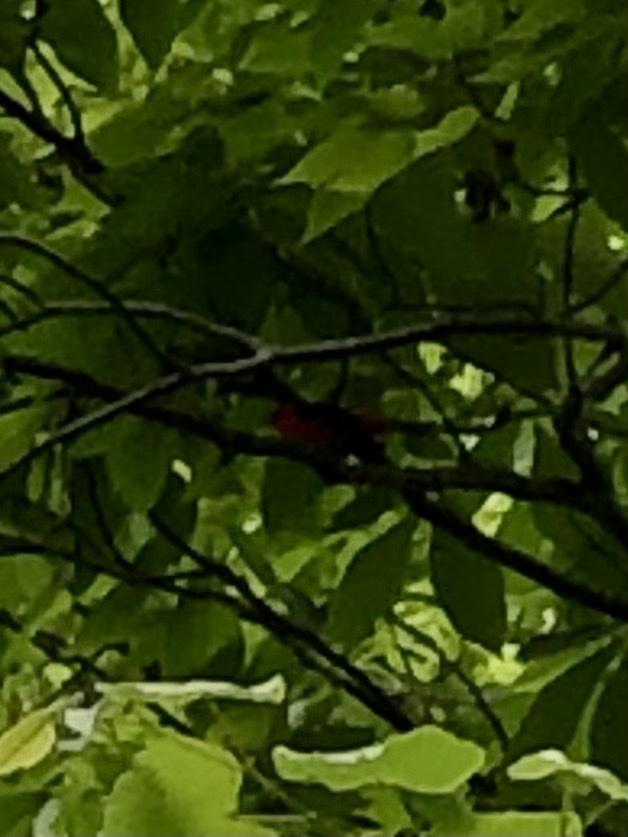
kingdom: Animalia
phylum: Chordata
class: Aves
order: Passeriformes
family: Cardinalidae
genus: Piranga
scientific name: Piranga olivacea
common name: Scarlet tanager
